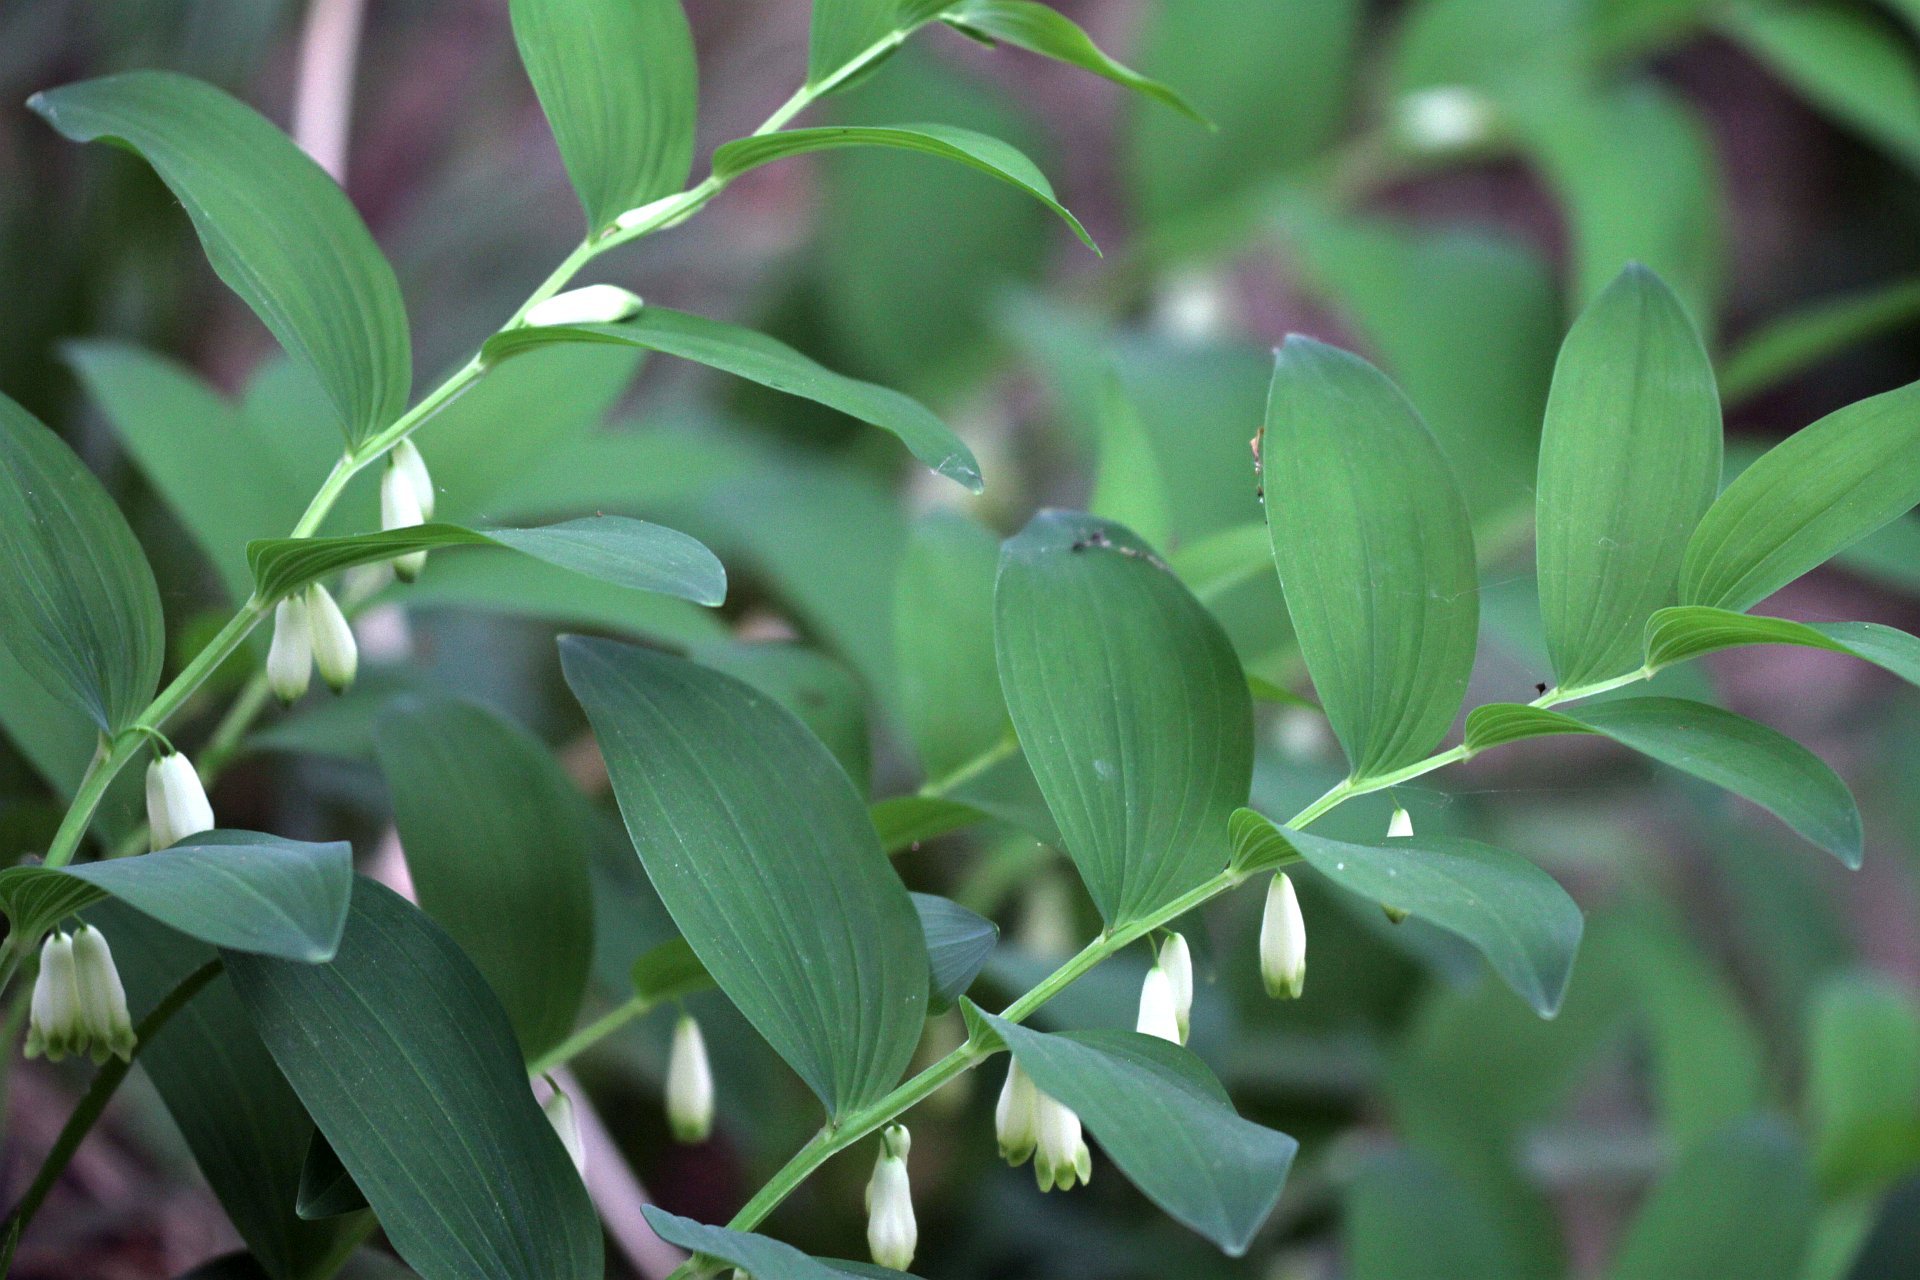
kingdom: Plantae
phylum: Tracheophyta
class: Liliopsida
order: Asparagales
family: Asparagaceae
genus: Polygonatum
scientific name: Polygonatum odoratum
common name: Angular solomon's-seal
